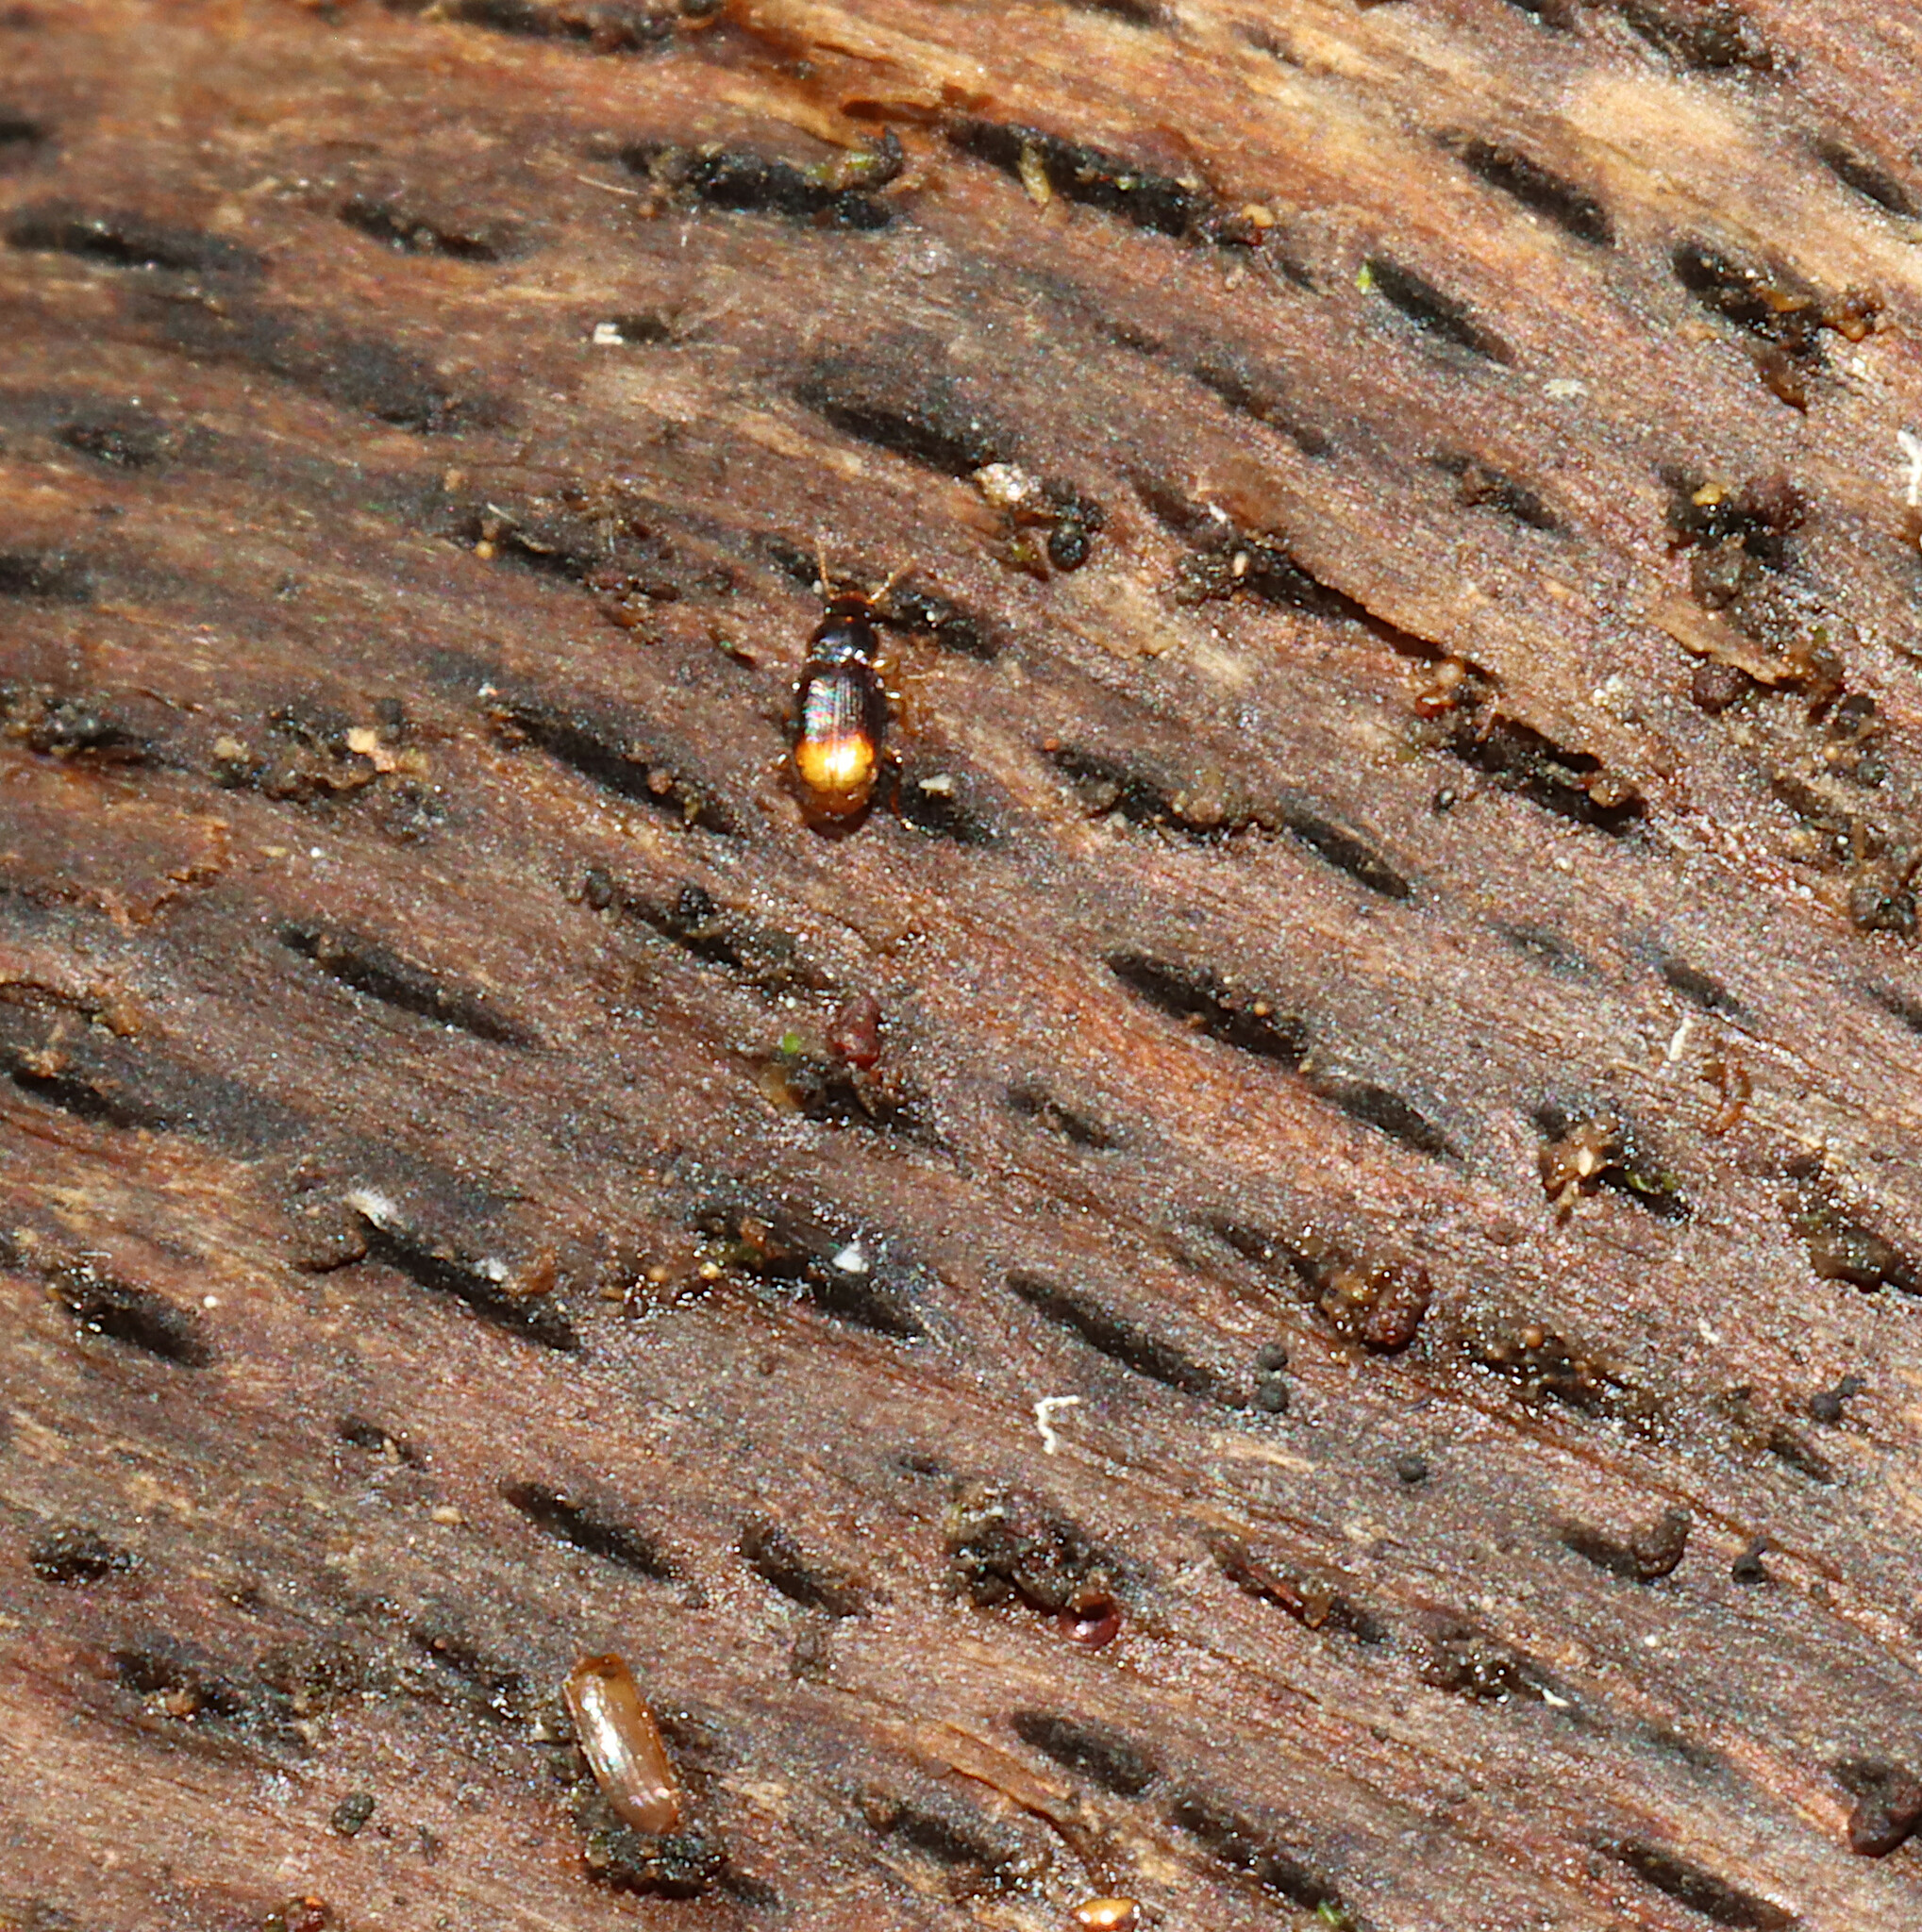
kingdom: Animalia
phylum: Arthropoda
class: Insecta
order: Coleoptera
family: Carabidae
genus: Mioptachys
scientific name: Mioptachys flavicauda
